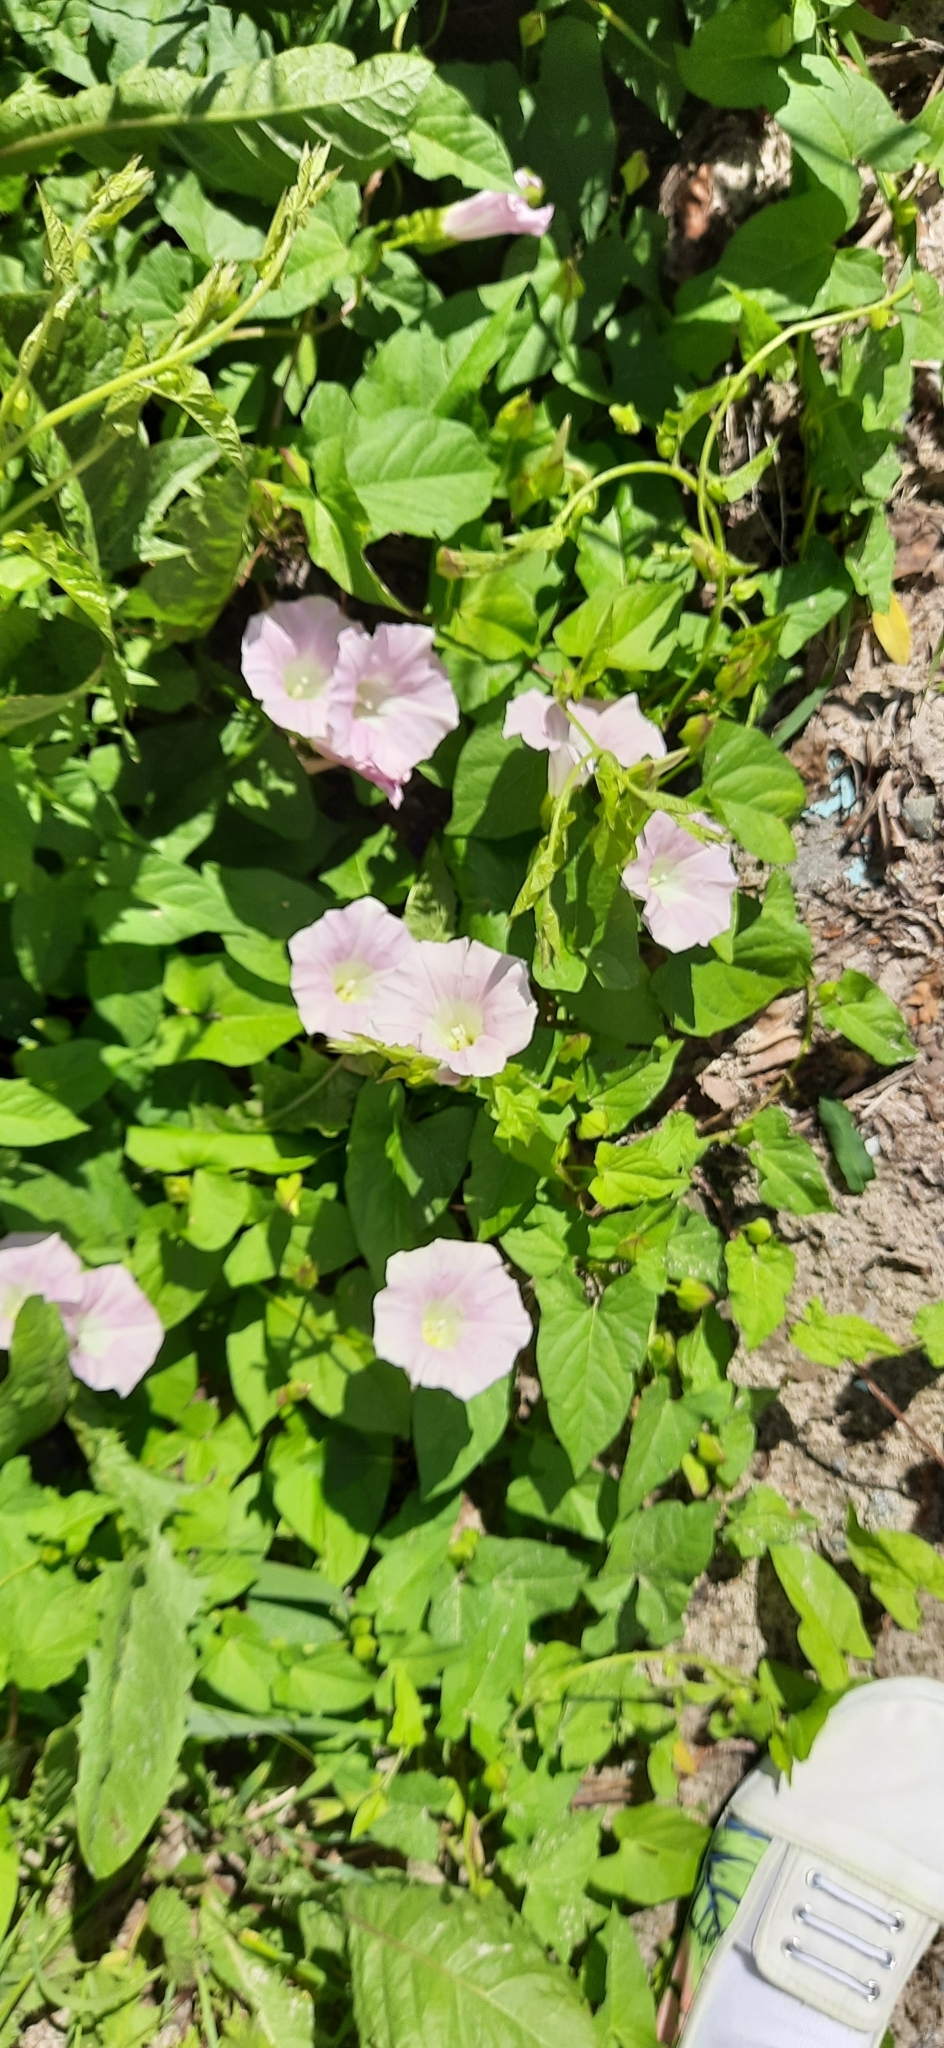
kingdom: Plantae
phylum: Tracheophyta
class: Magnoliopsida
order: Solanales
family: Convolvulaceae
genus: Calystegia
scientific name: Calystegia sepium
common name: Hedge bindweed
